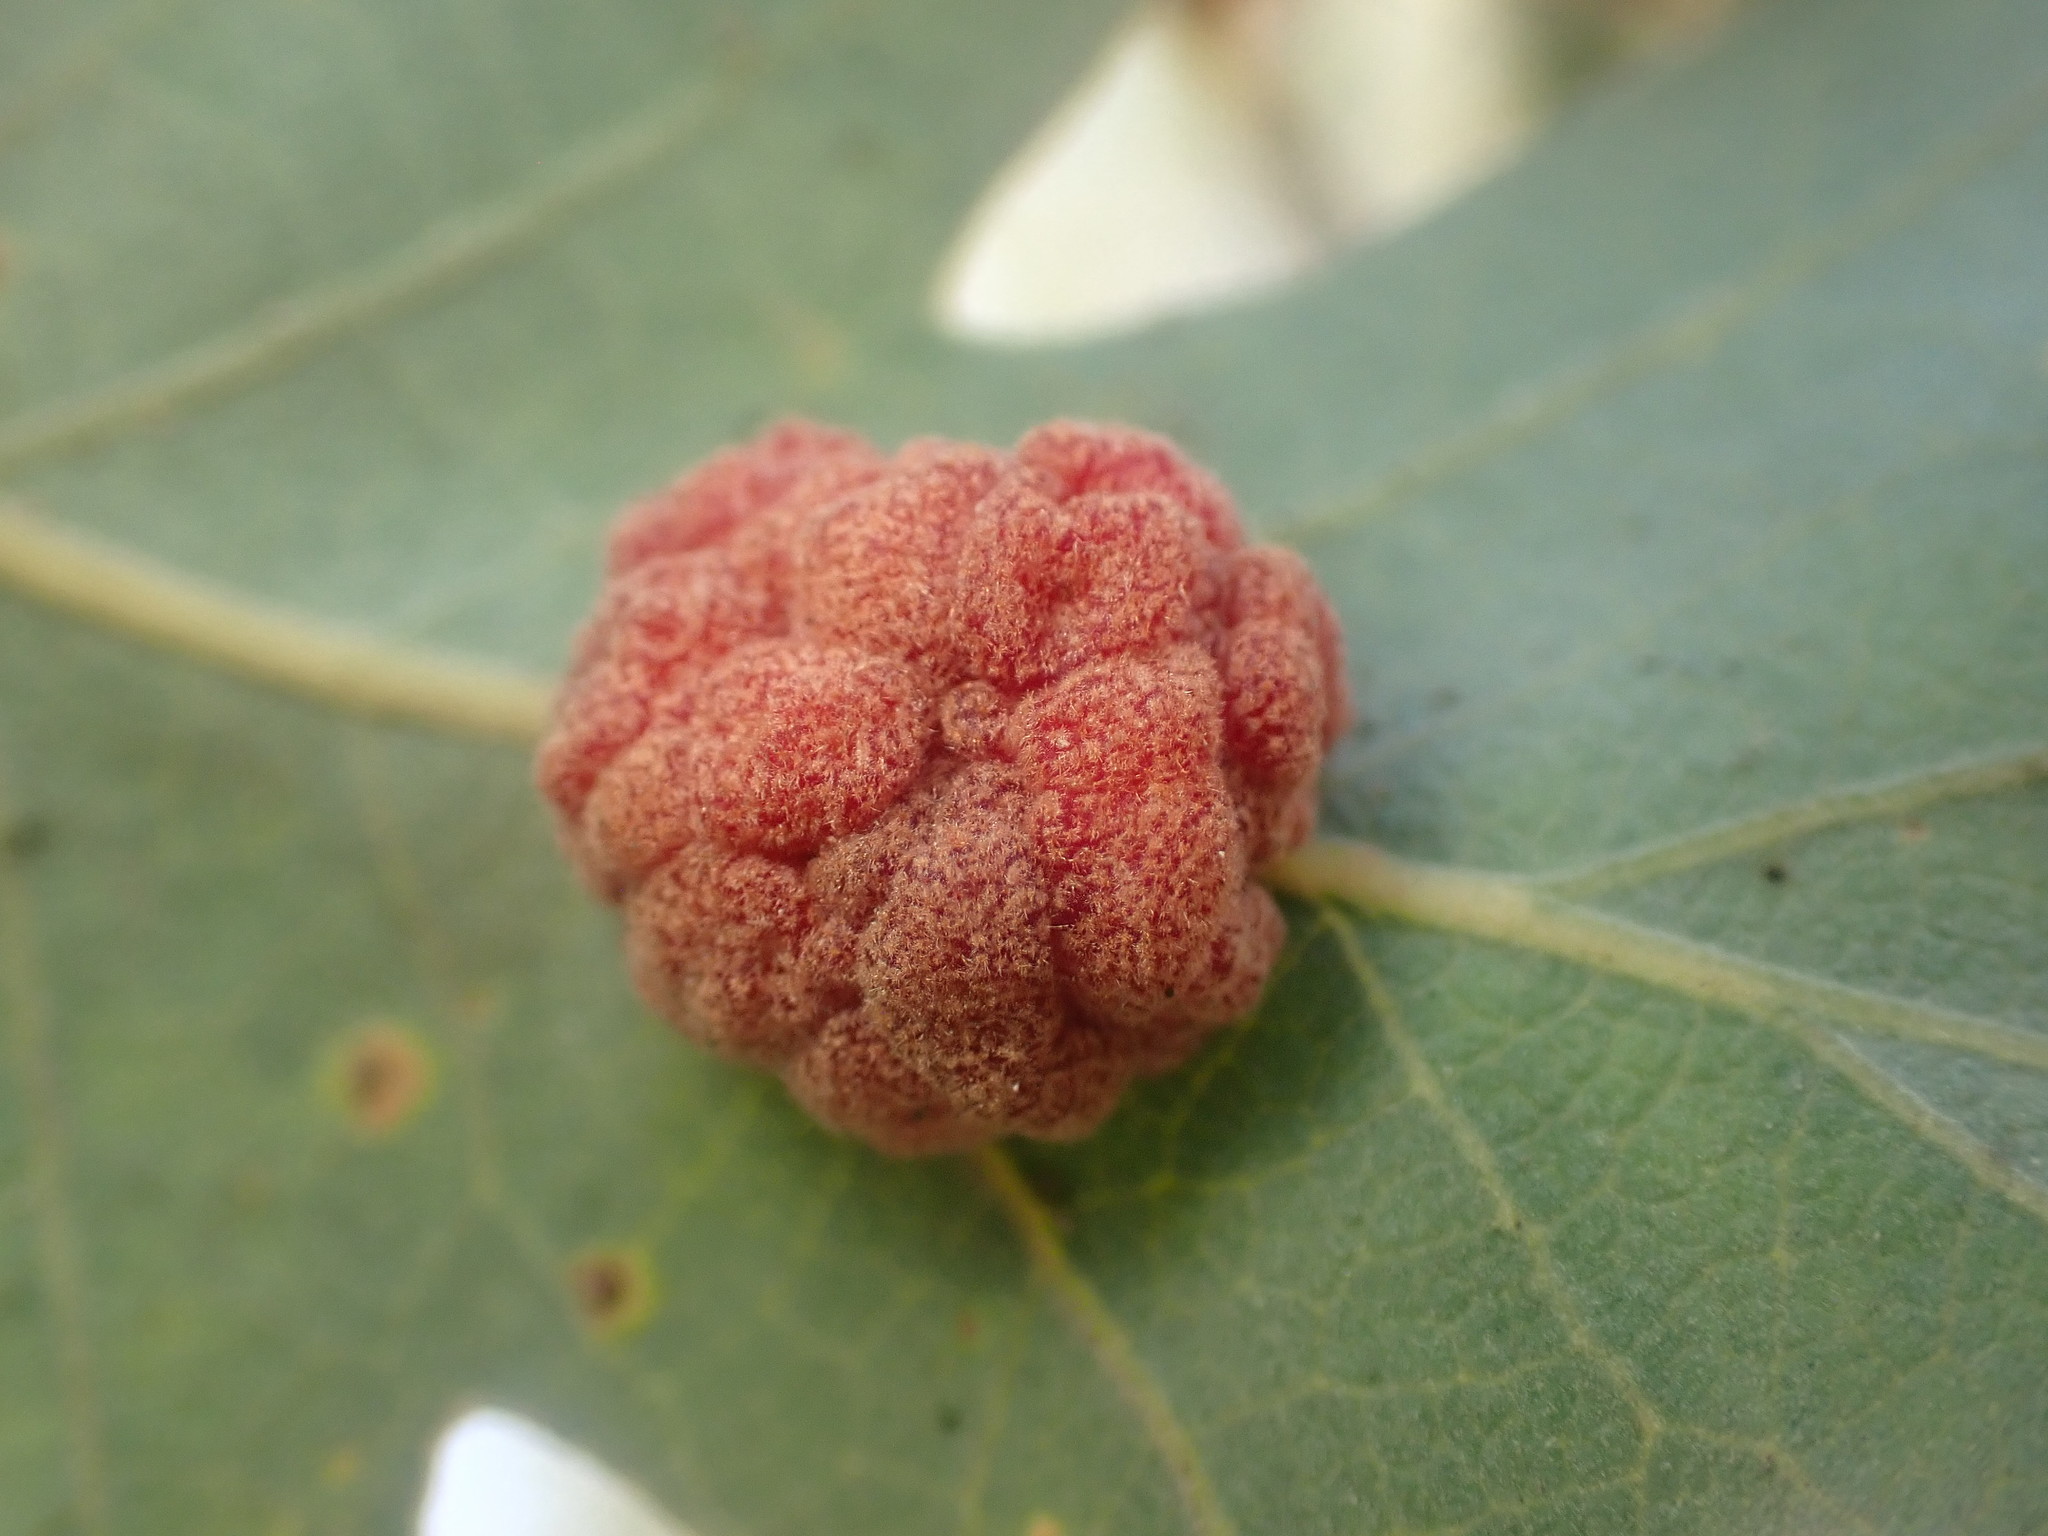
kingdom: Animalia
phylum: Arthropoda
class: Insecta
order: Hymenoptera
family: Cynipidae
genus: Andricus
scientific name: Andricus
